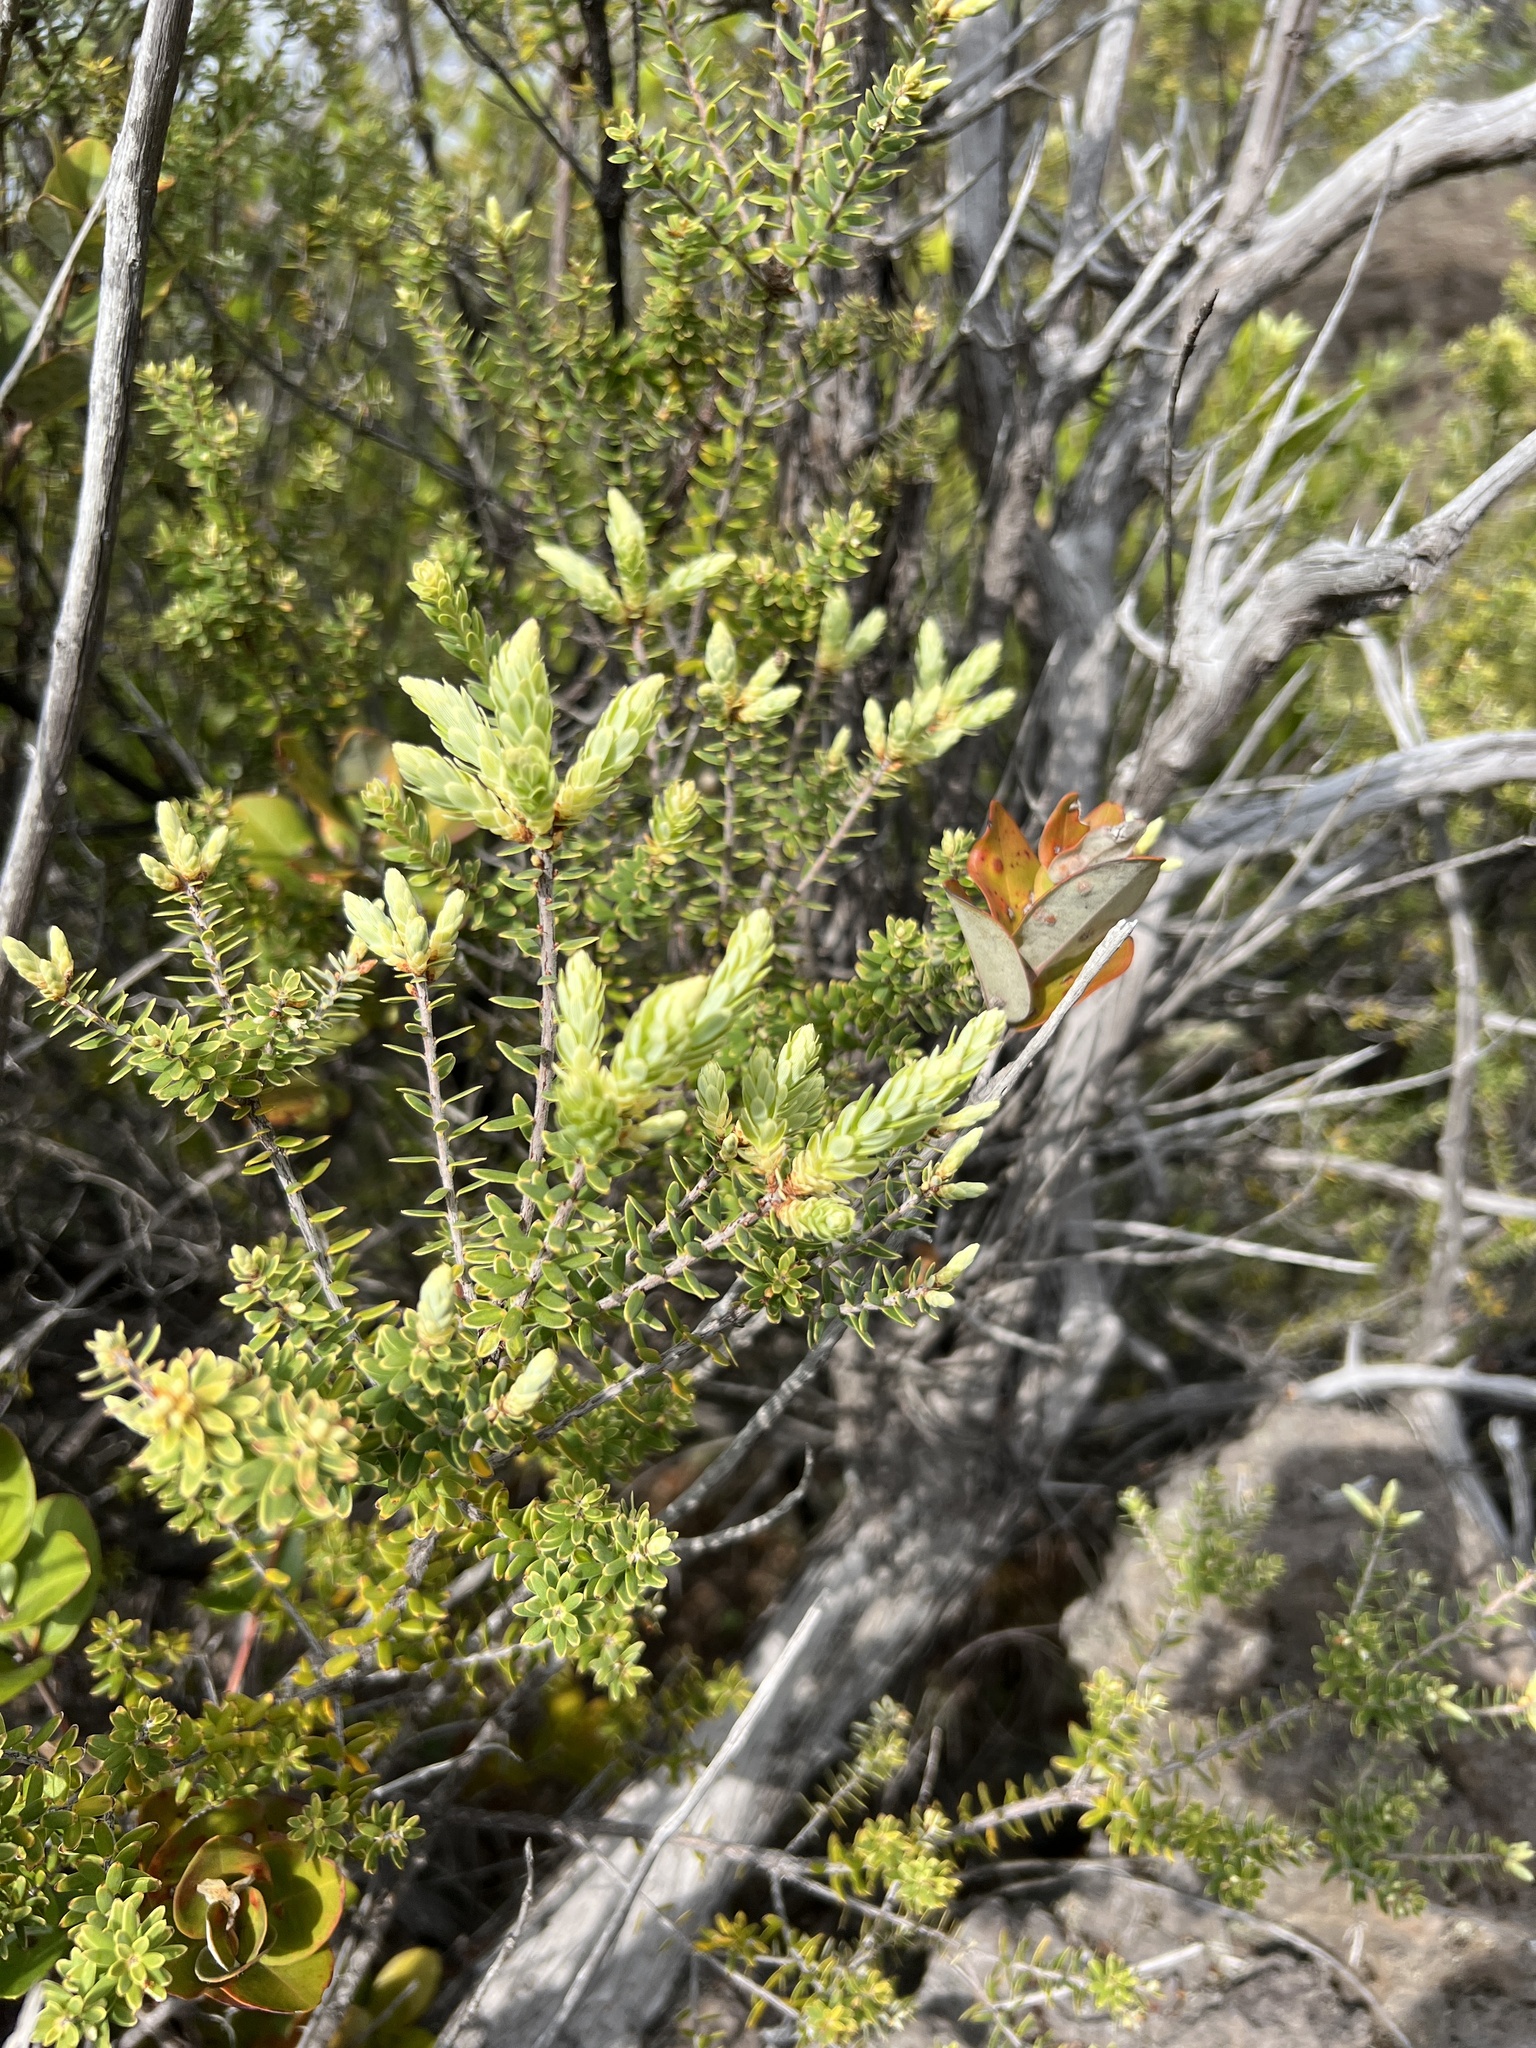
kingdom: Plantae
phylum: Tracheophyta
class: Magnoliopsida
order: Ericales
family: Ericaceae
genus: Leptecophylla
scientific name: Leptecophylla tameiameiae
